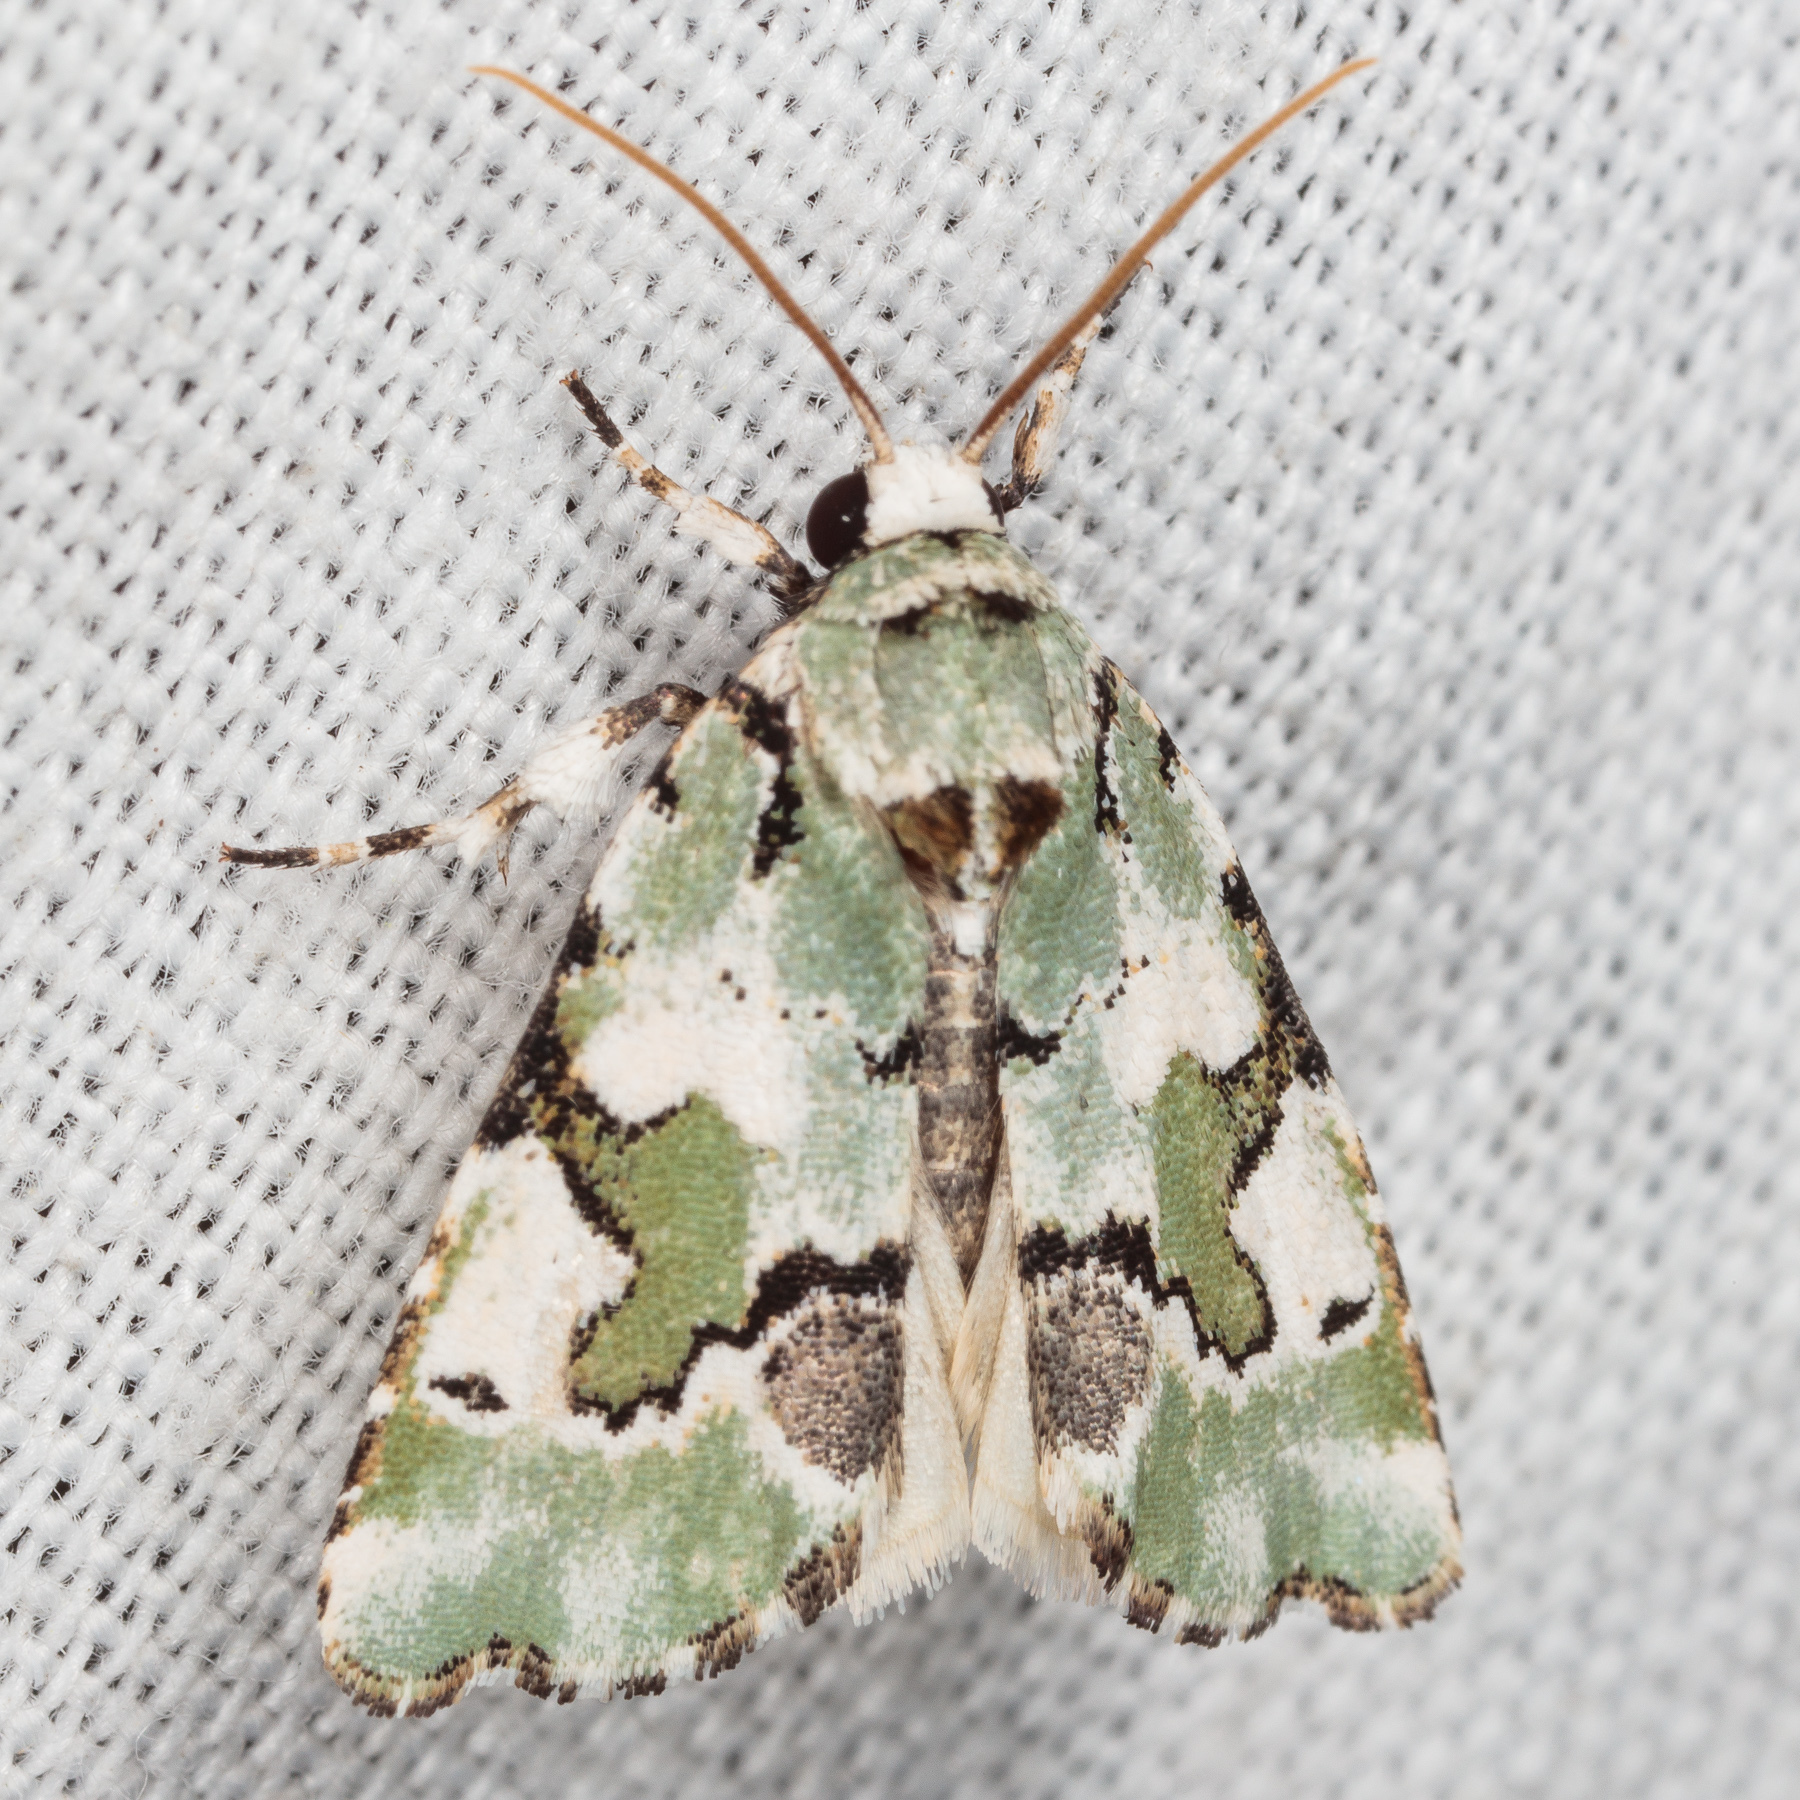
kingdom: Animalia
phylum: Arthropoda
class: Insecta
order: Lepidoptera
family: Noctuidae
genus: Emarginea
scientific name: Emarginea percara
